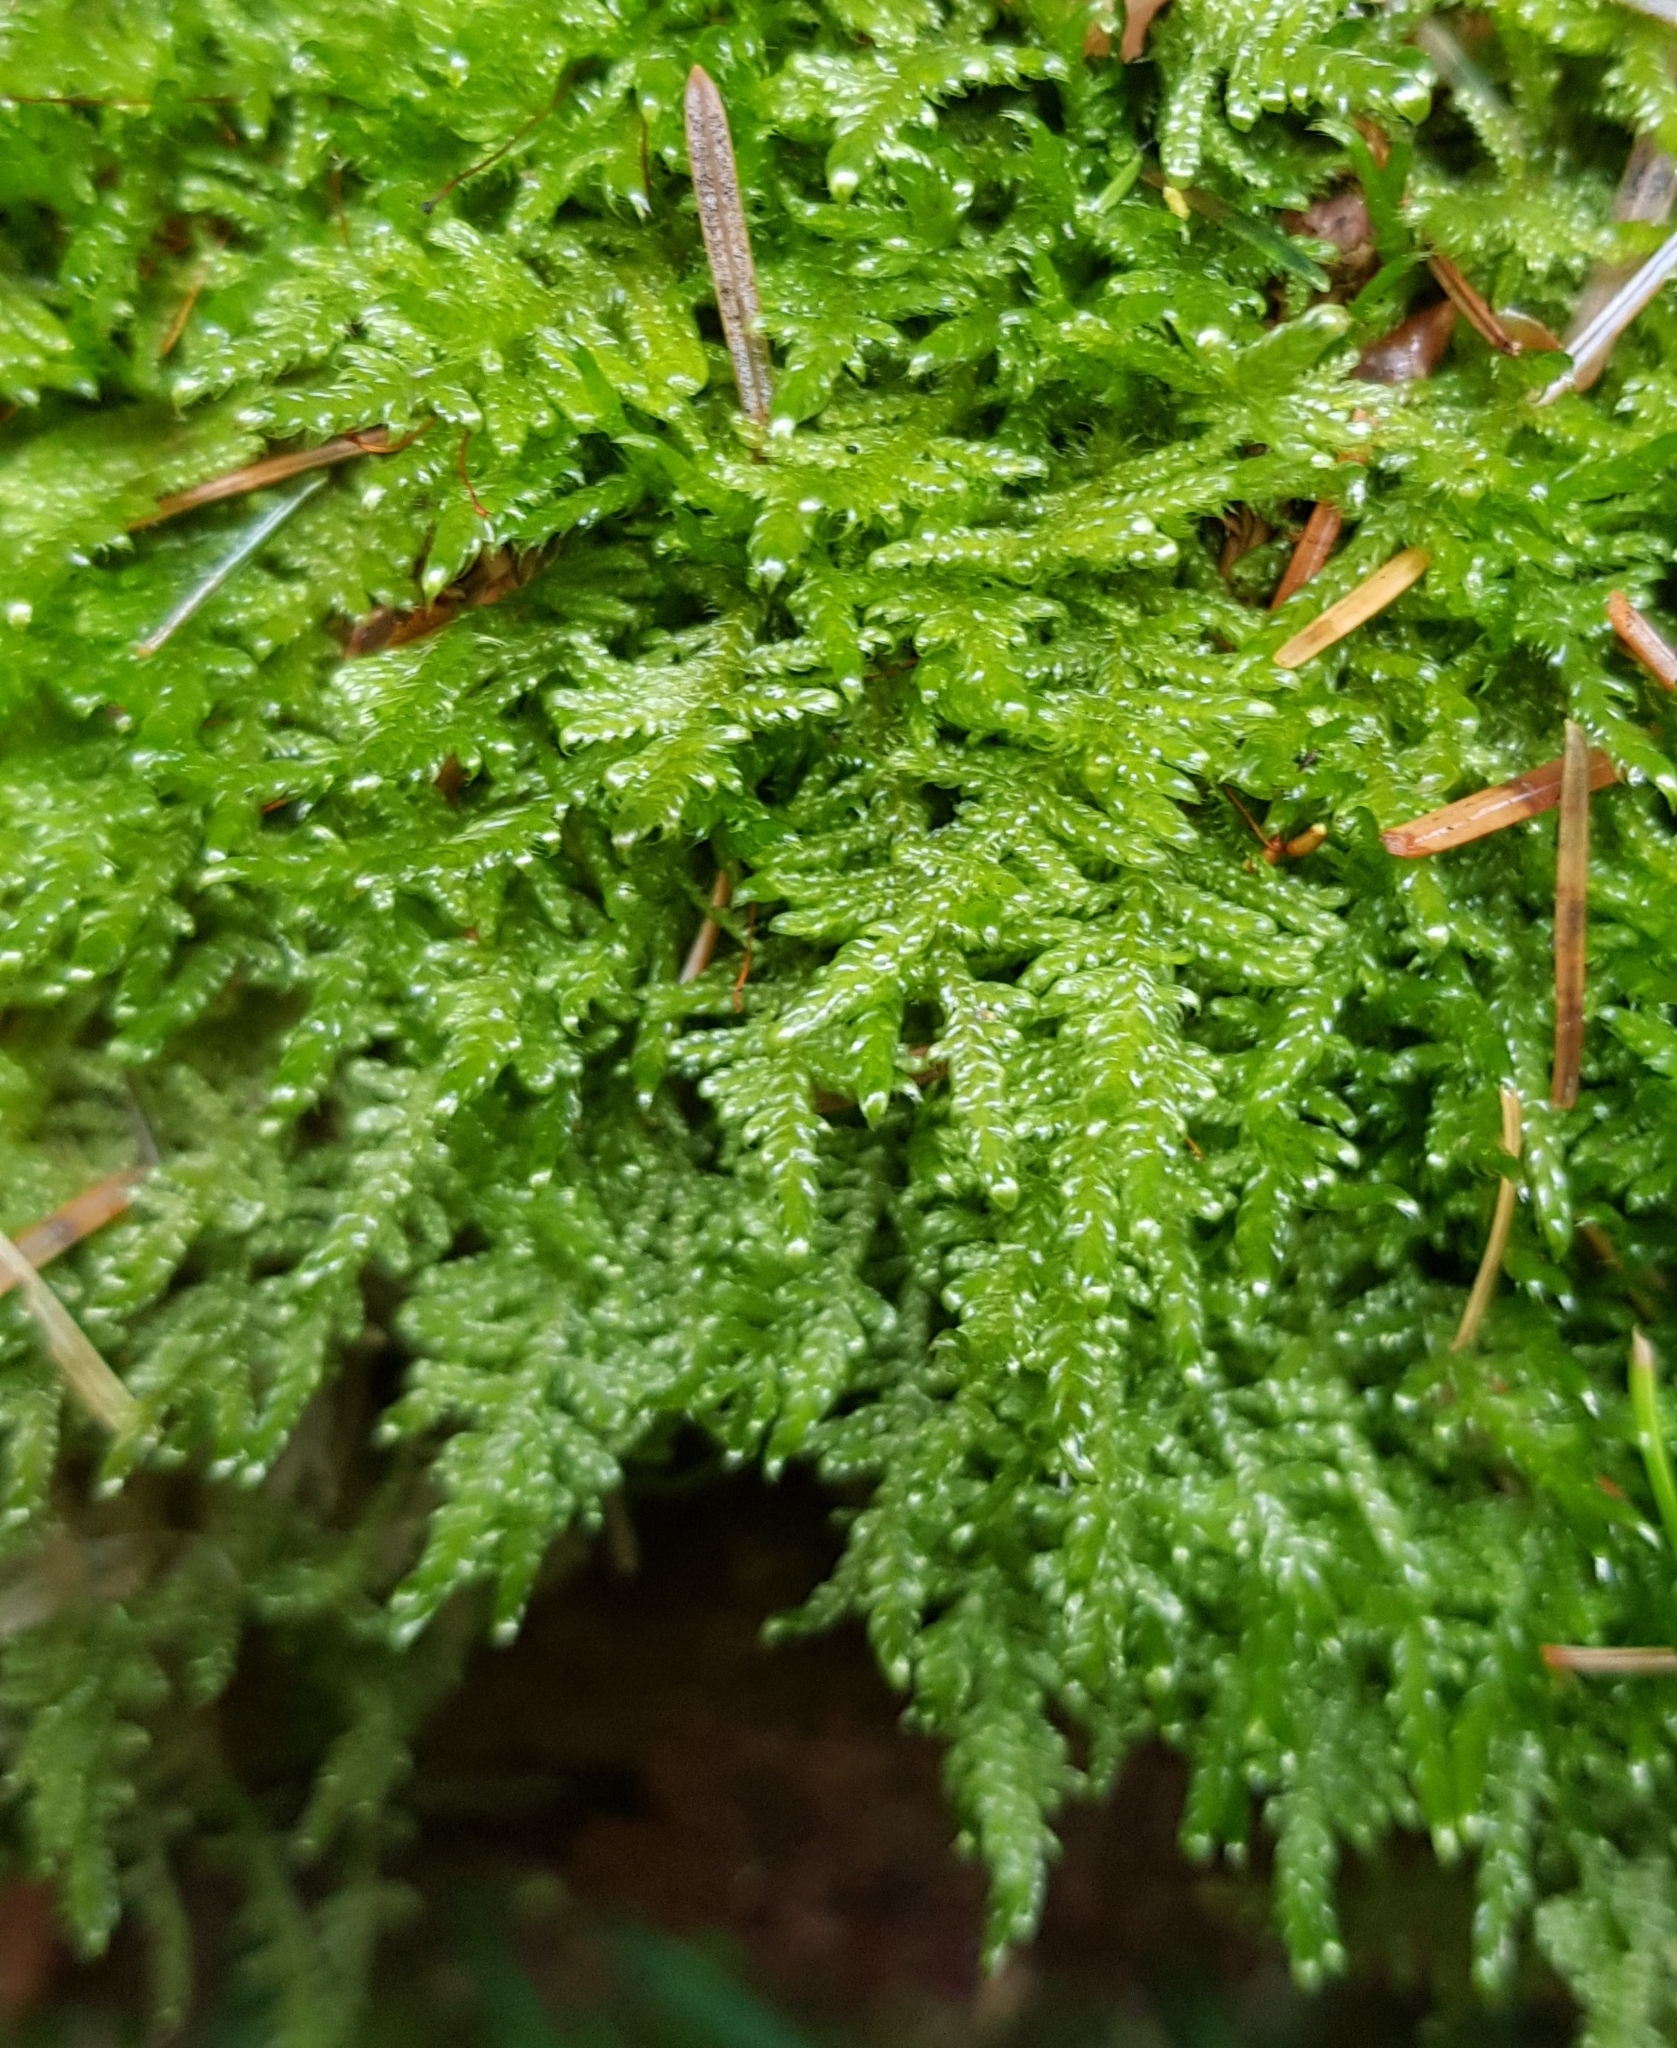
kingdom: Plantae
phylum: Bryophyta
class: Bryopsida
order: Hypnales
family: Hypnaceae
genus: Hypnum
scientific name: Hypnum jutlandicum
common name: Heath plait-moss
